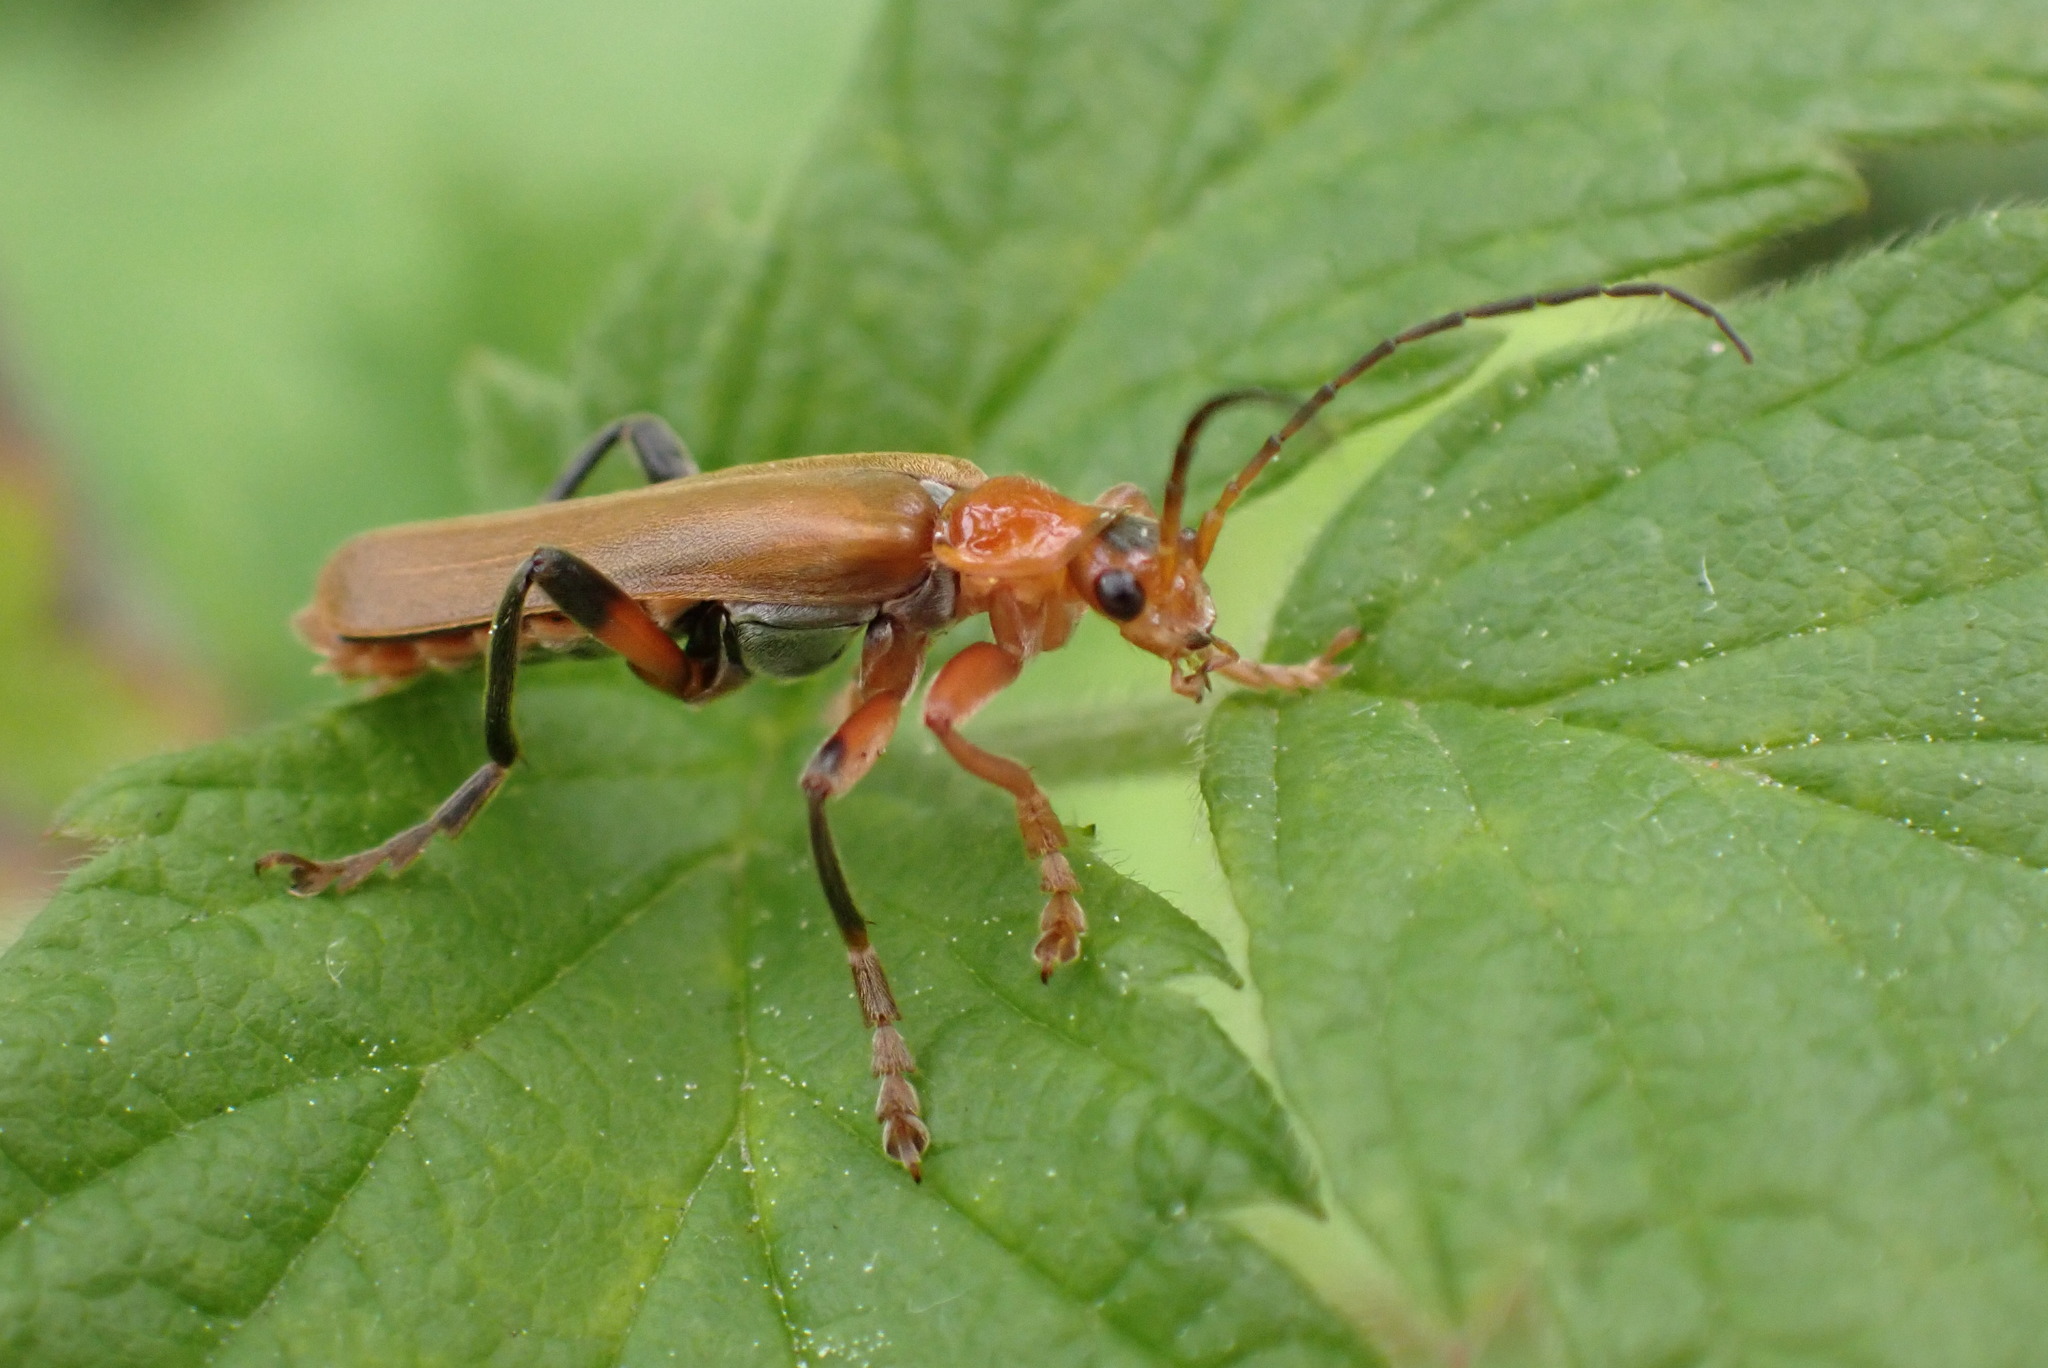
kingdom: Animalia
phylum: Arthropoda
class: Insecta
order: Coleoptera
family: Cantharidae
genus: Cantharis
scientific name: Cantharis livida
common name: Livid soldier beetle
